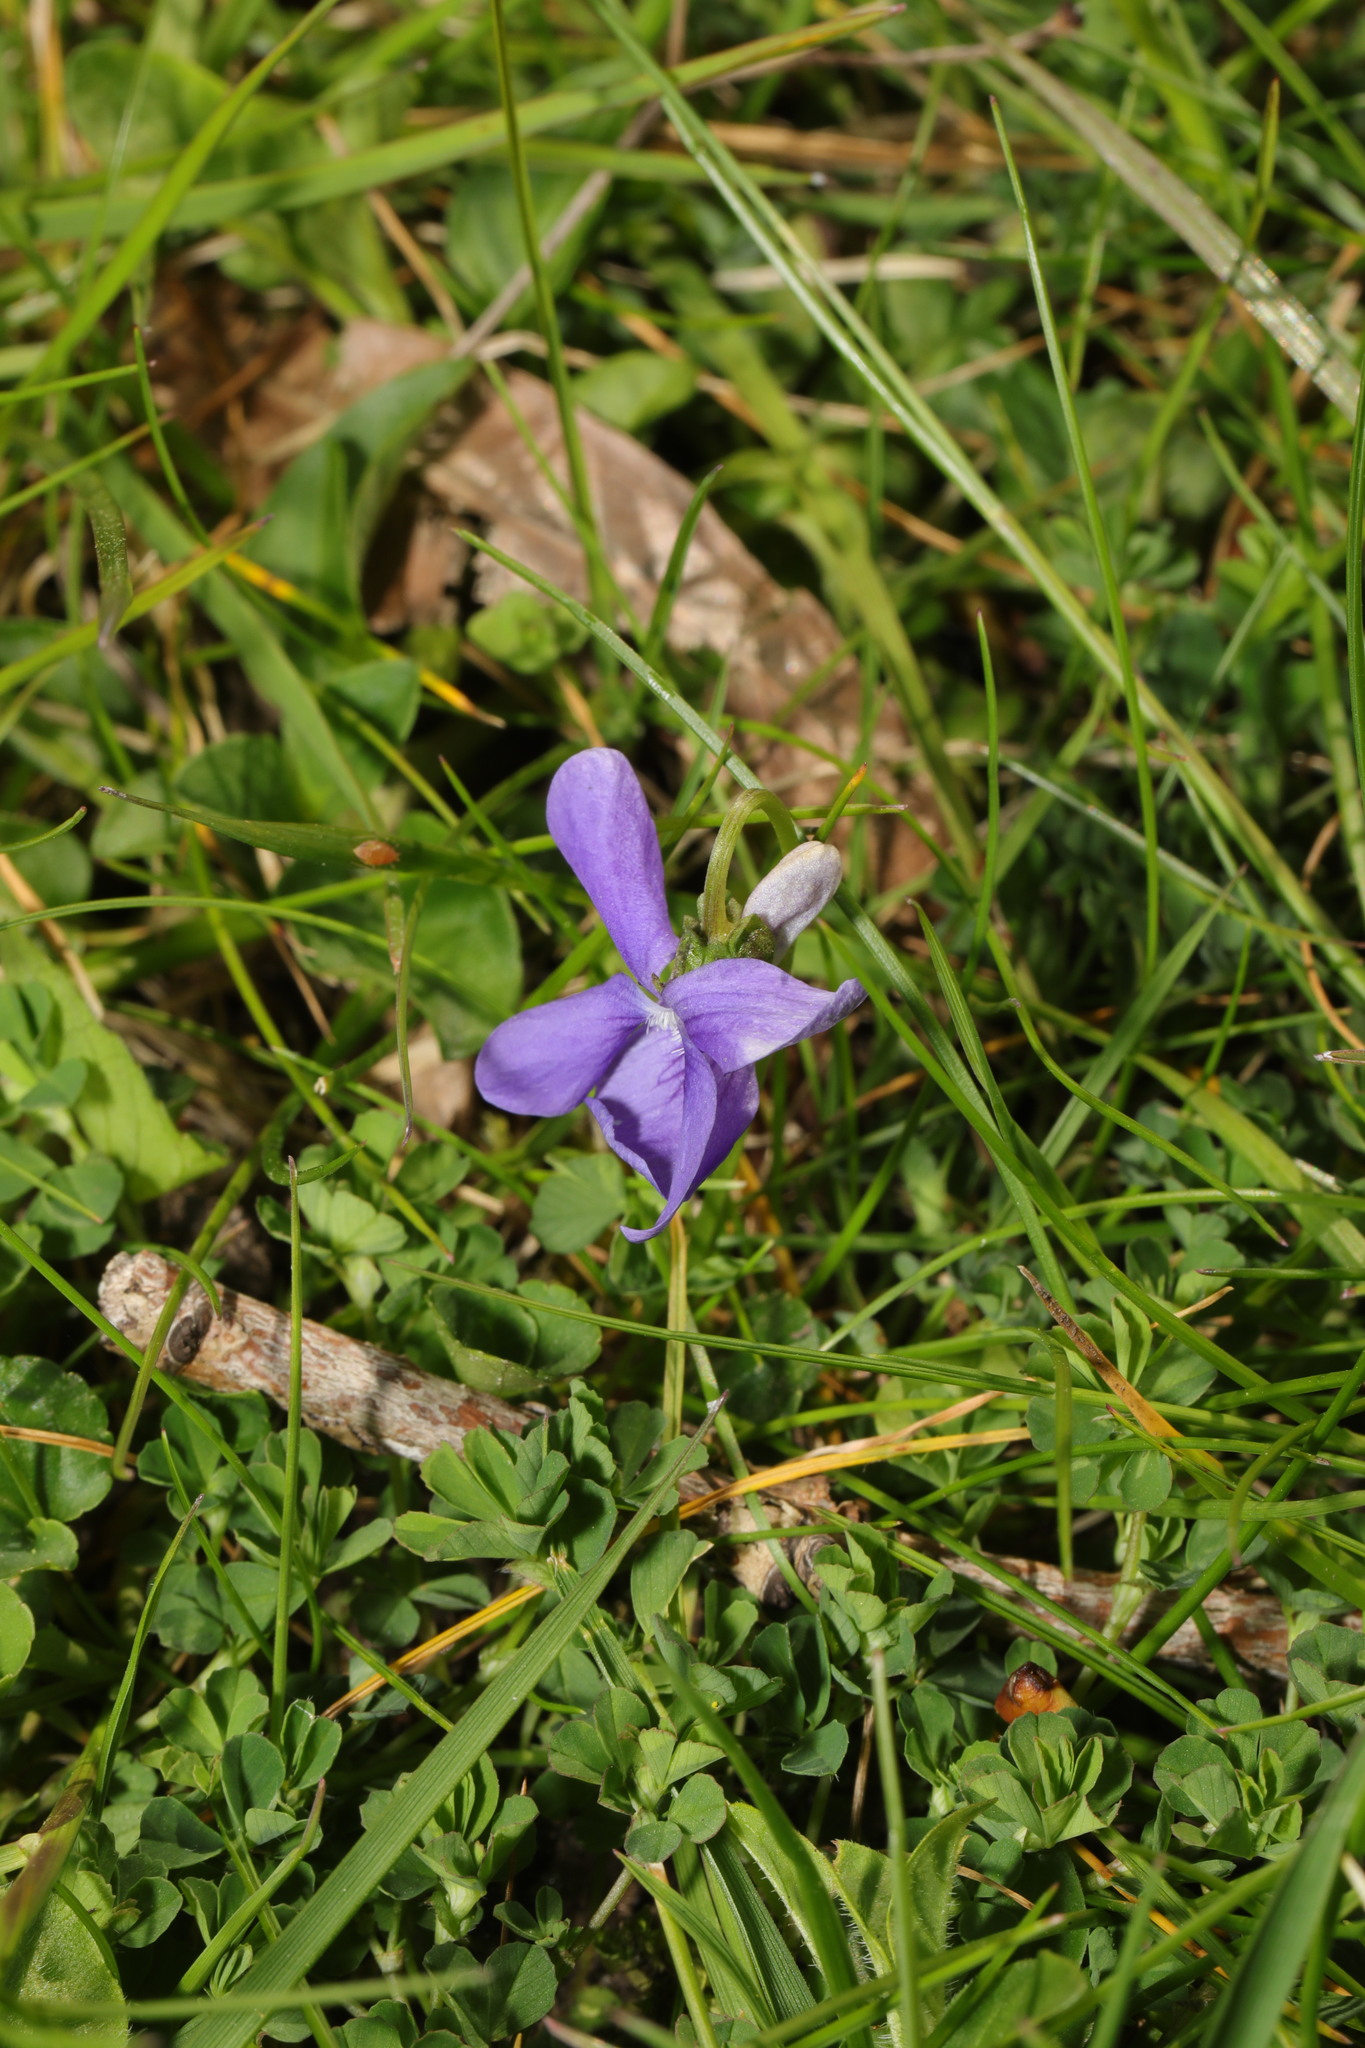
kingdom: Plantae
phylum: Tracheophyta
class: Magnoliopsida
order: Malpighiales
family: Violaceae
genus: Viola
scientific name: Viola riviniana
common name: Common dog-violet
